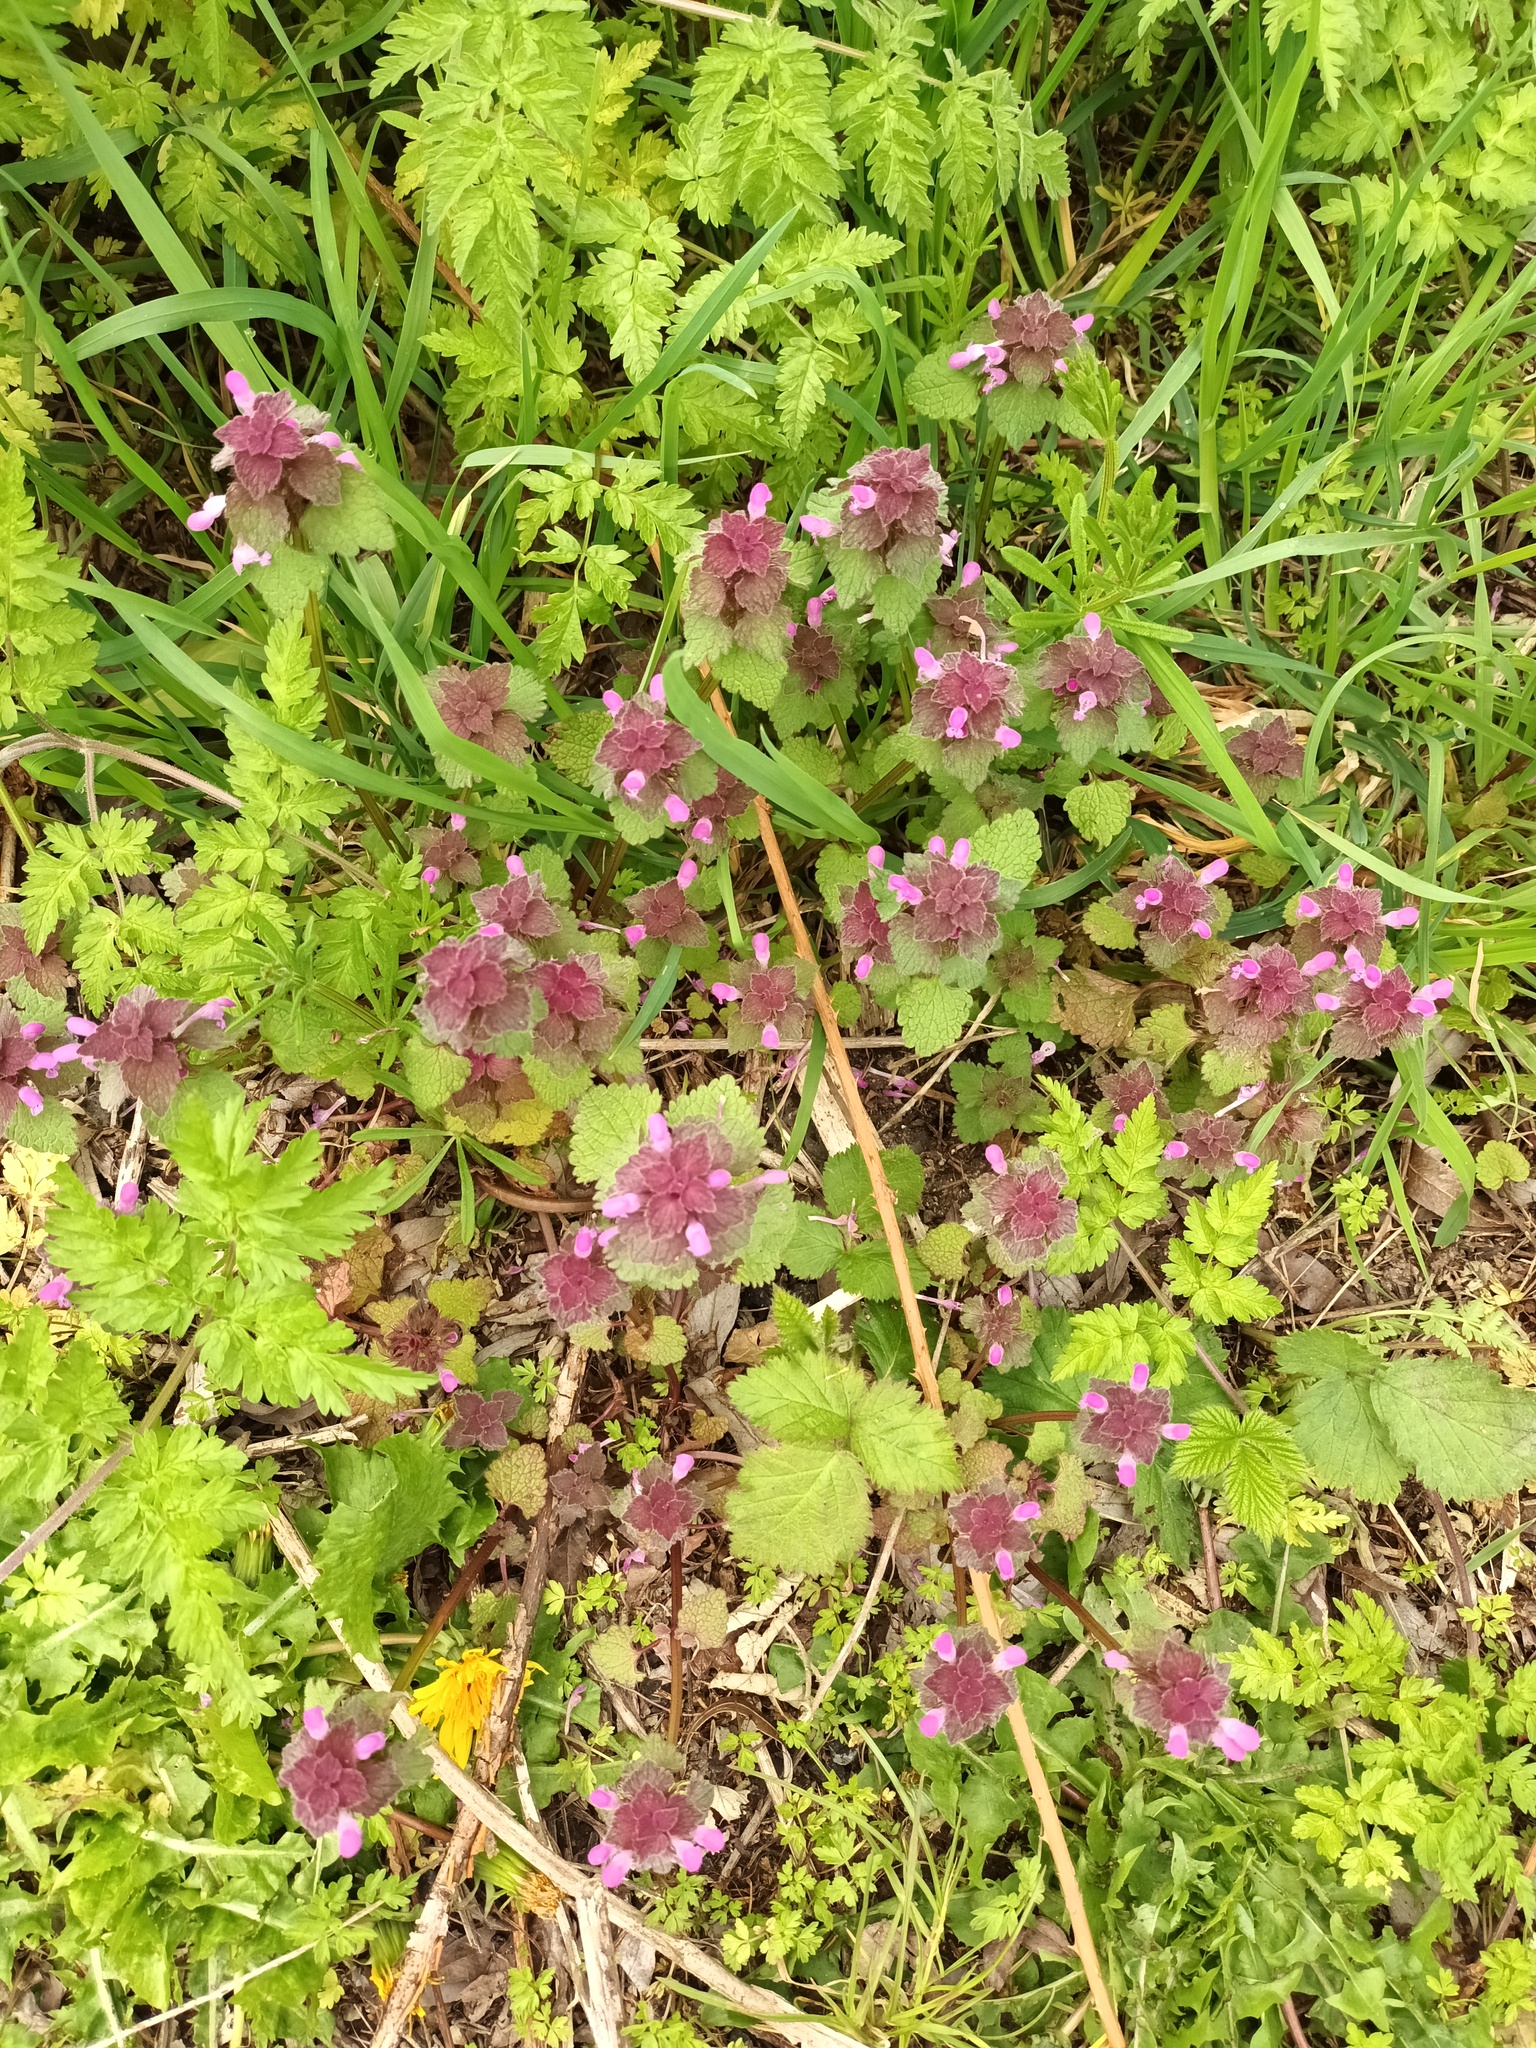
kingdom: Plantae
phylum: Tracheophyta
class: Magnoliopsida
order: Lamiales
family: Lamiaceae
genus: Lamium
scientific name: Lamium purpureum
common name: Red dead-nettle
